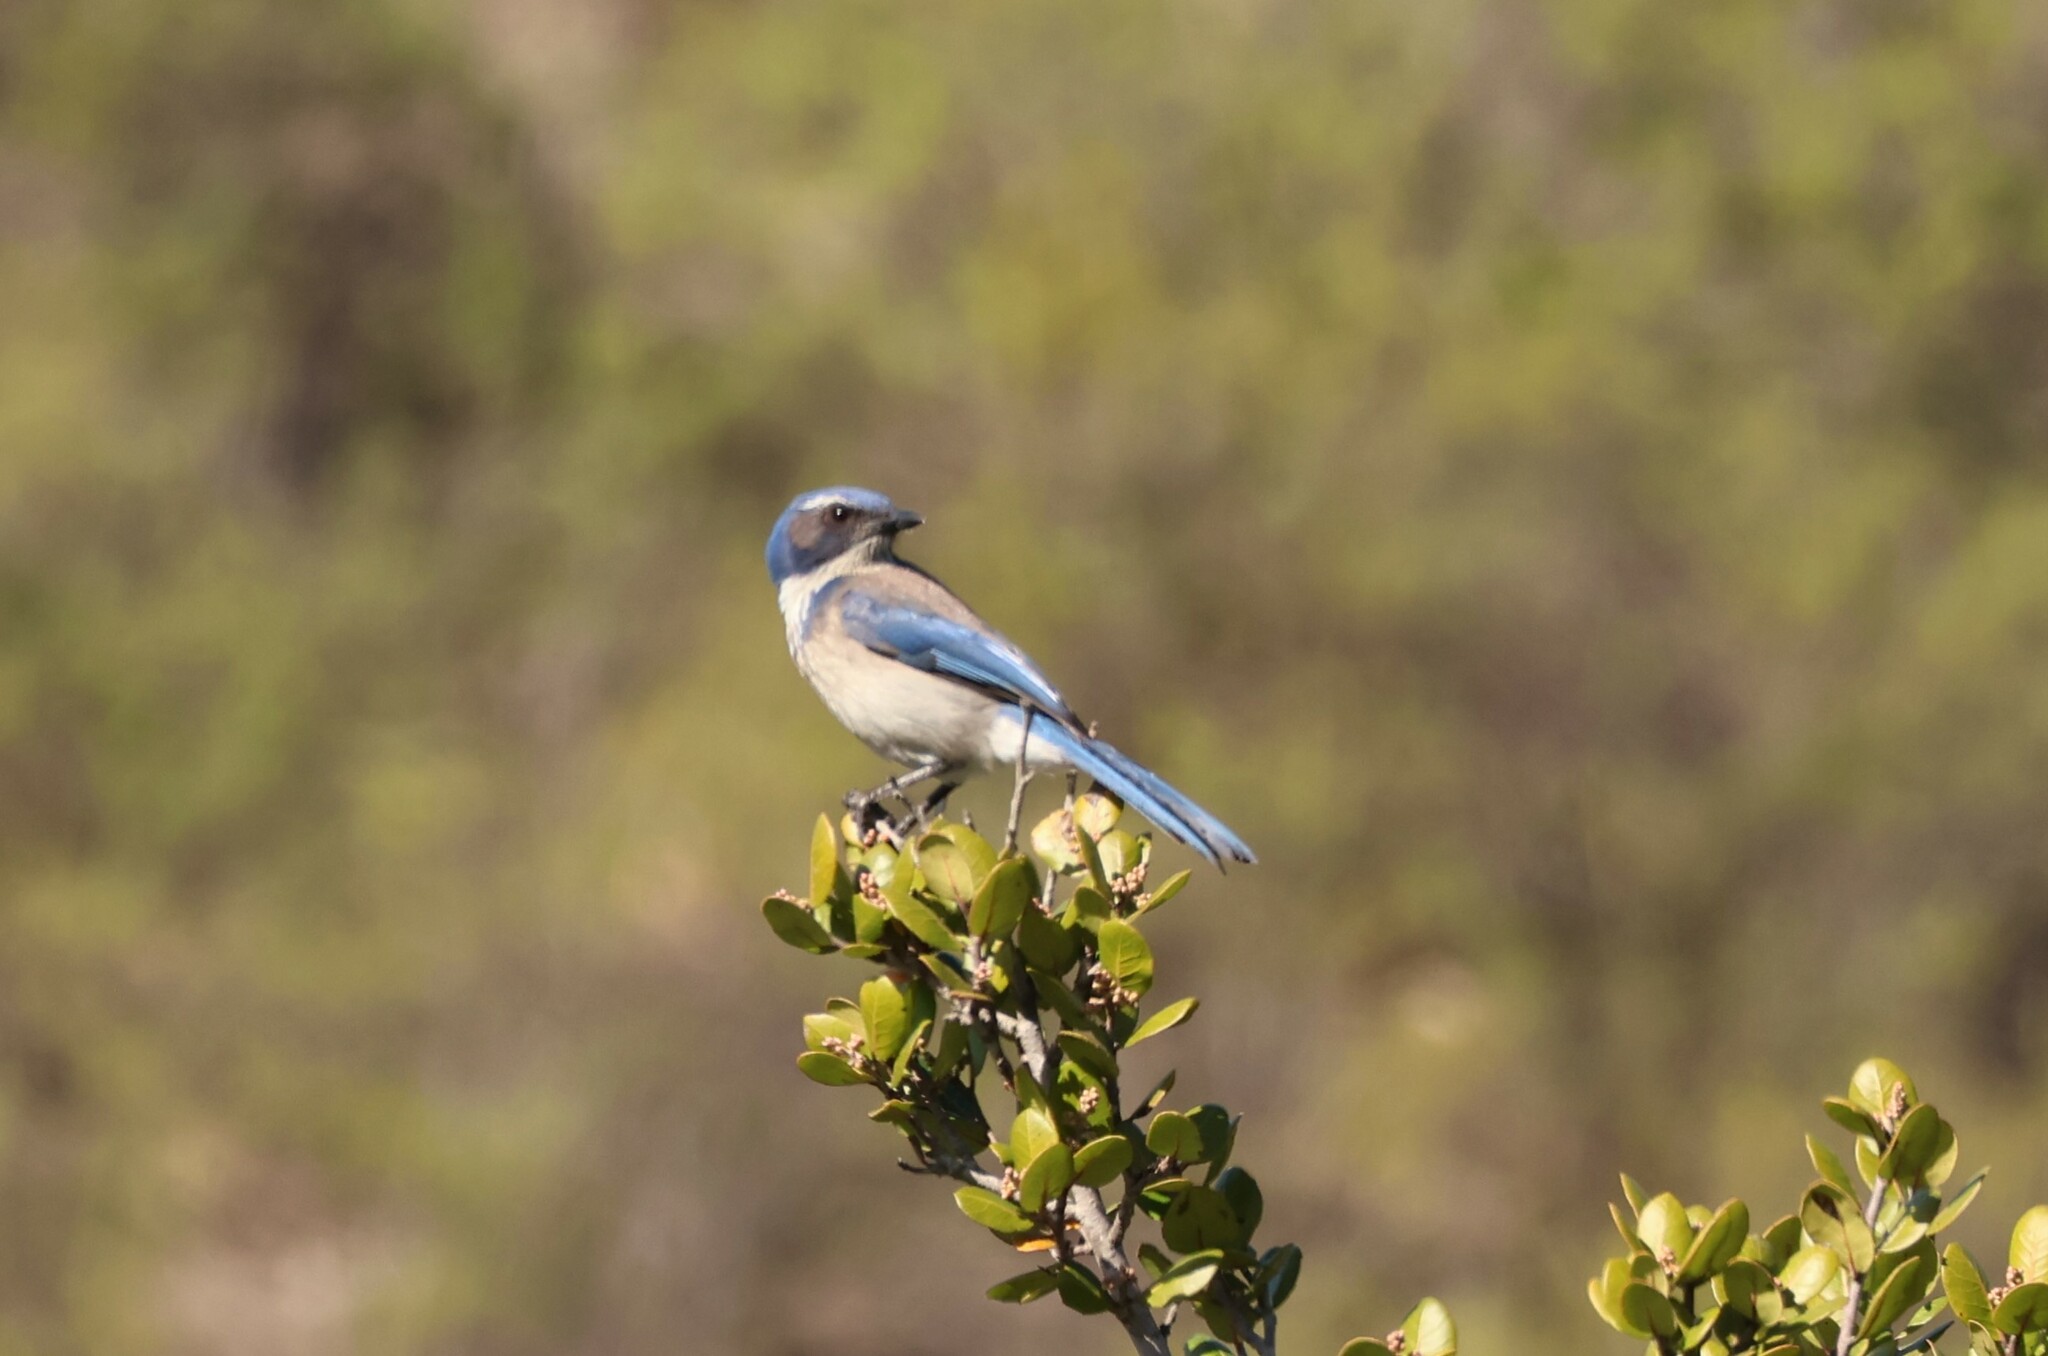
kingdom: Animalia
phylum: Chordata
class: Aves
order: Passeriformes
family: Corvidae
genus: Aphelocoma
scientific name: Aphelocoma californica
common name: California scrub-jay
